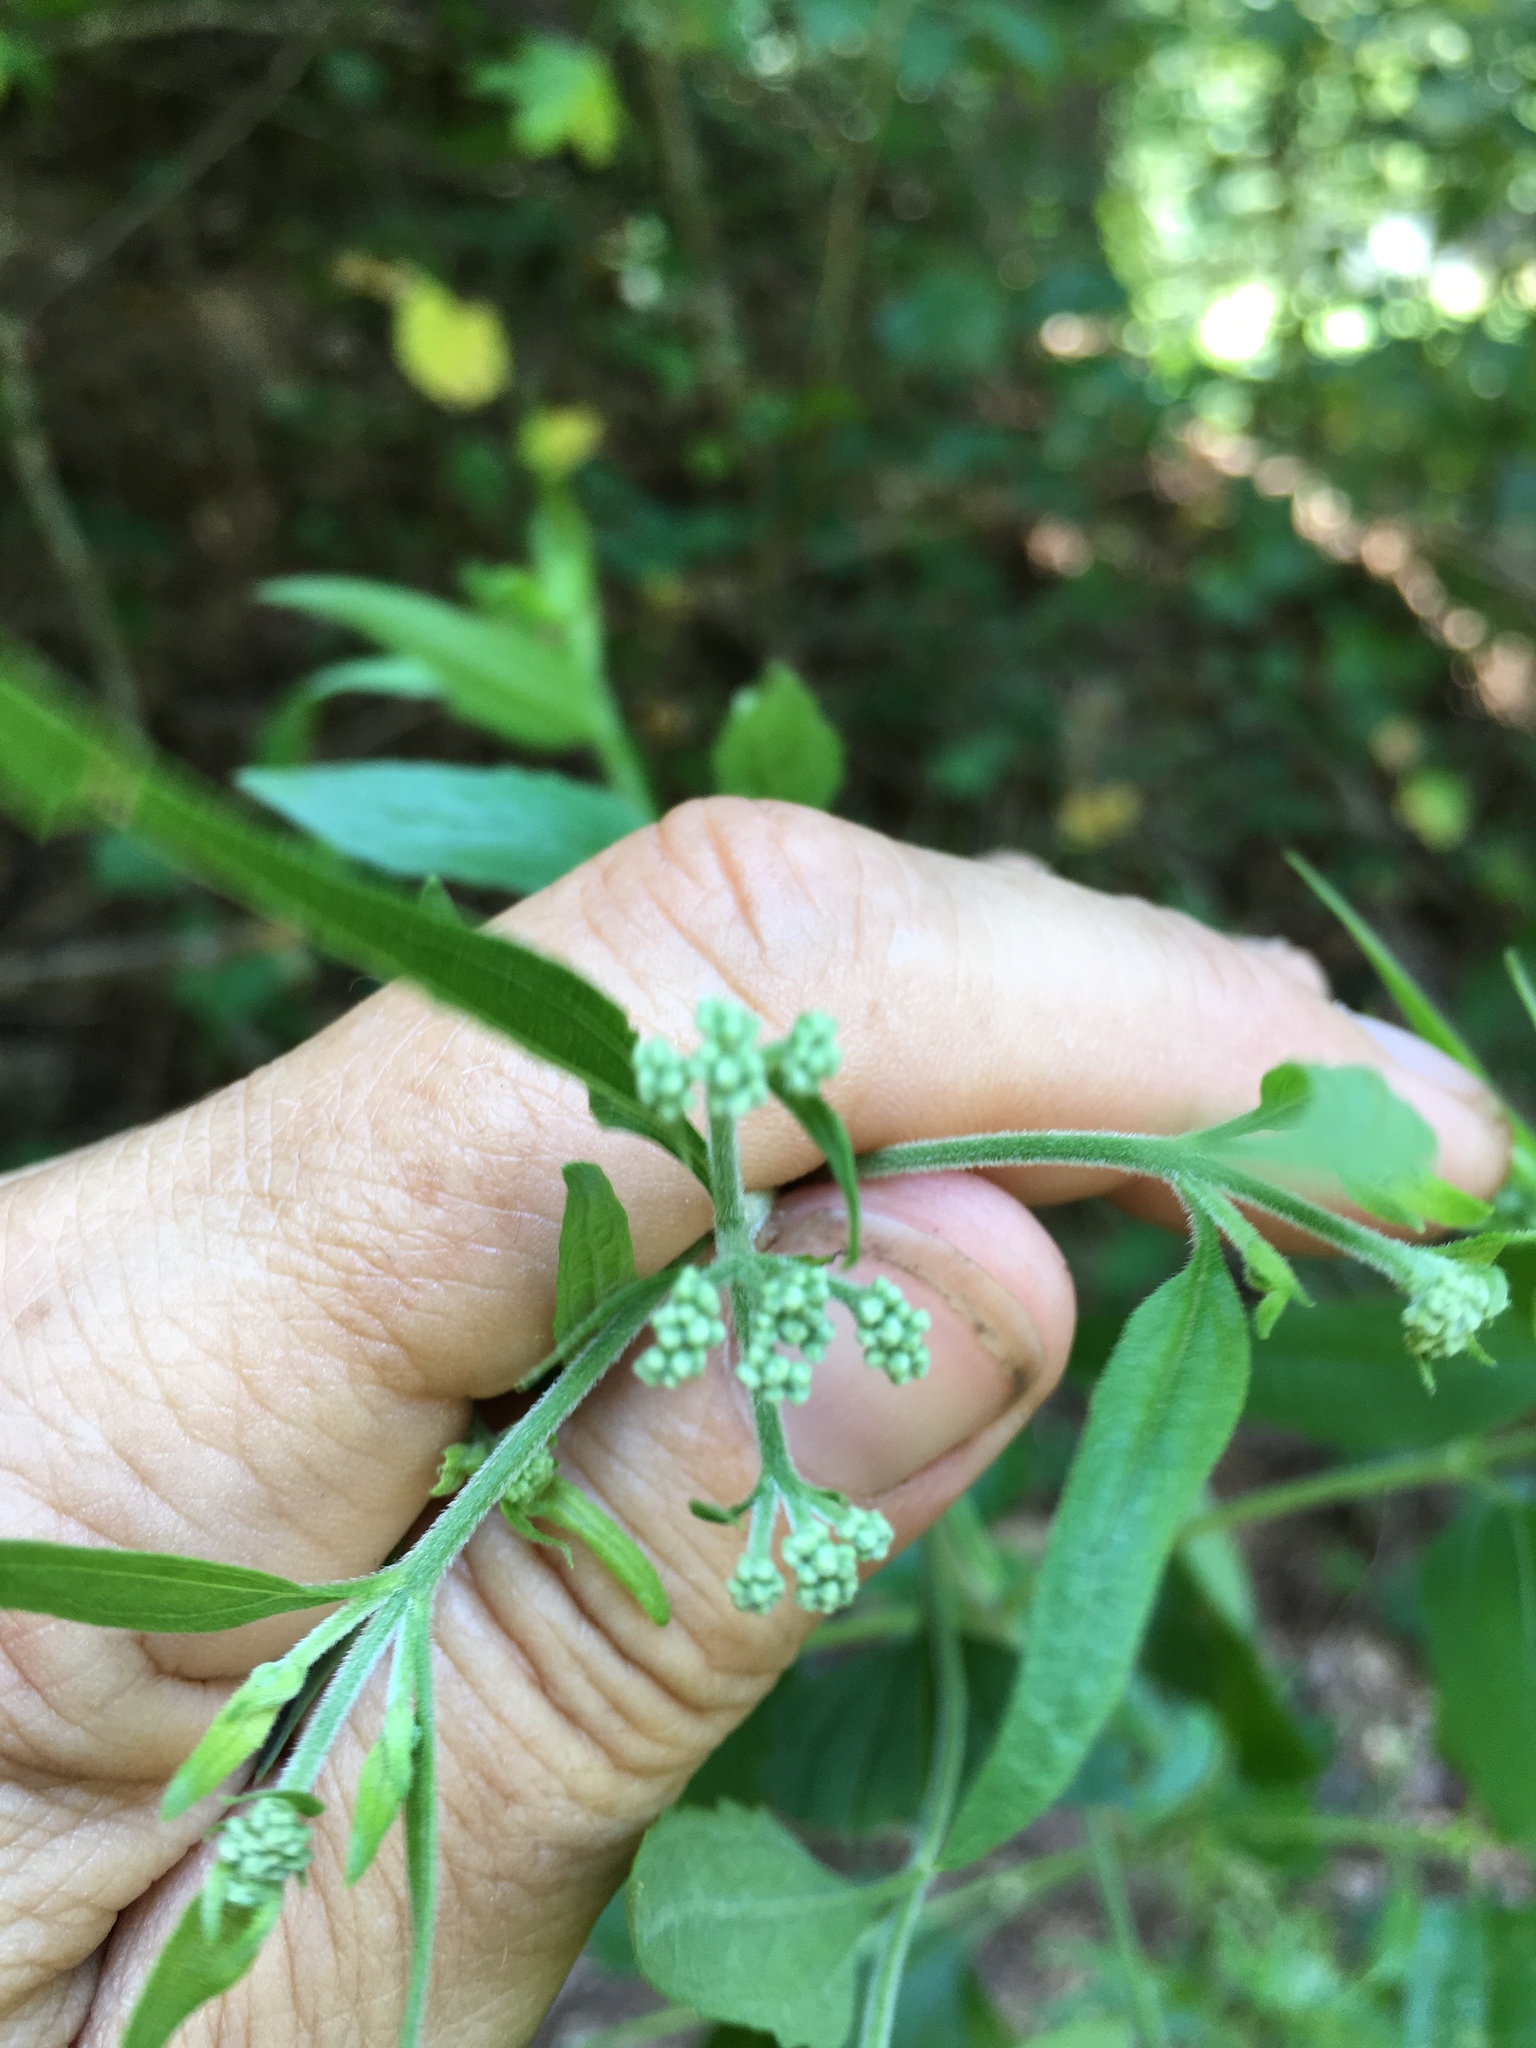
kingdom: Plantae
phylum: Tracheophyta
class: Magnoliopsida
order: Asterales
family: Asteraceae
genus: Eupatorium
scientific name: Eupatorium serotinum
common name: Late boneset
